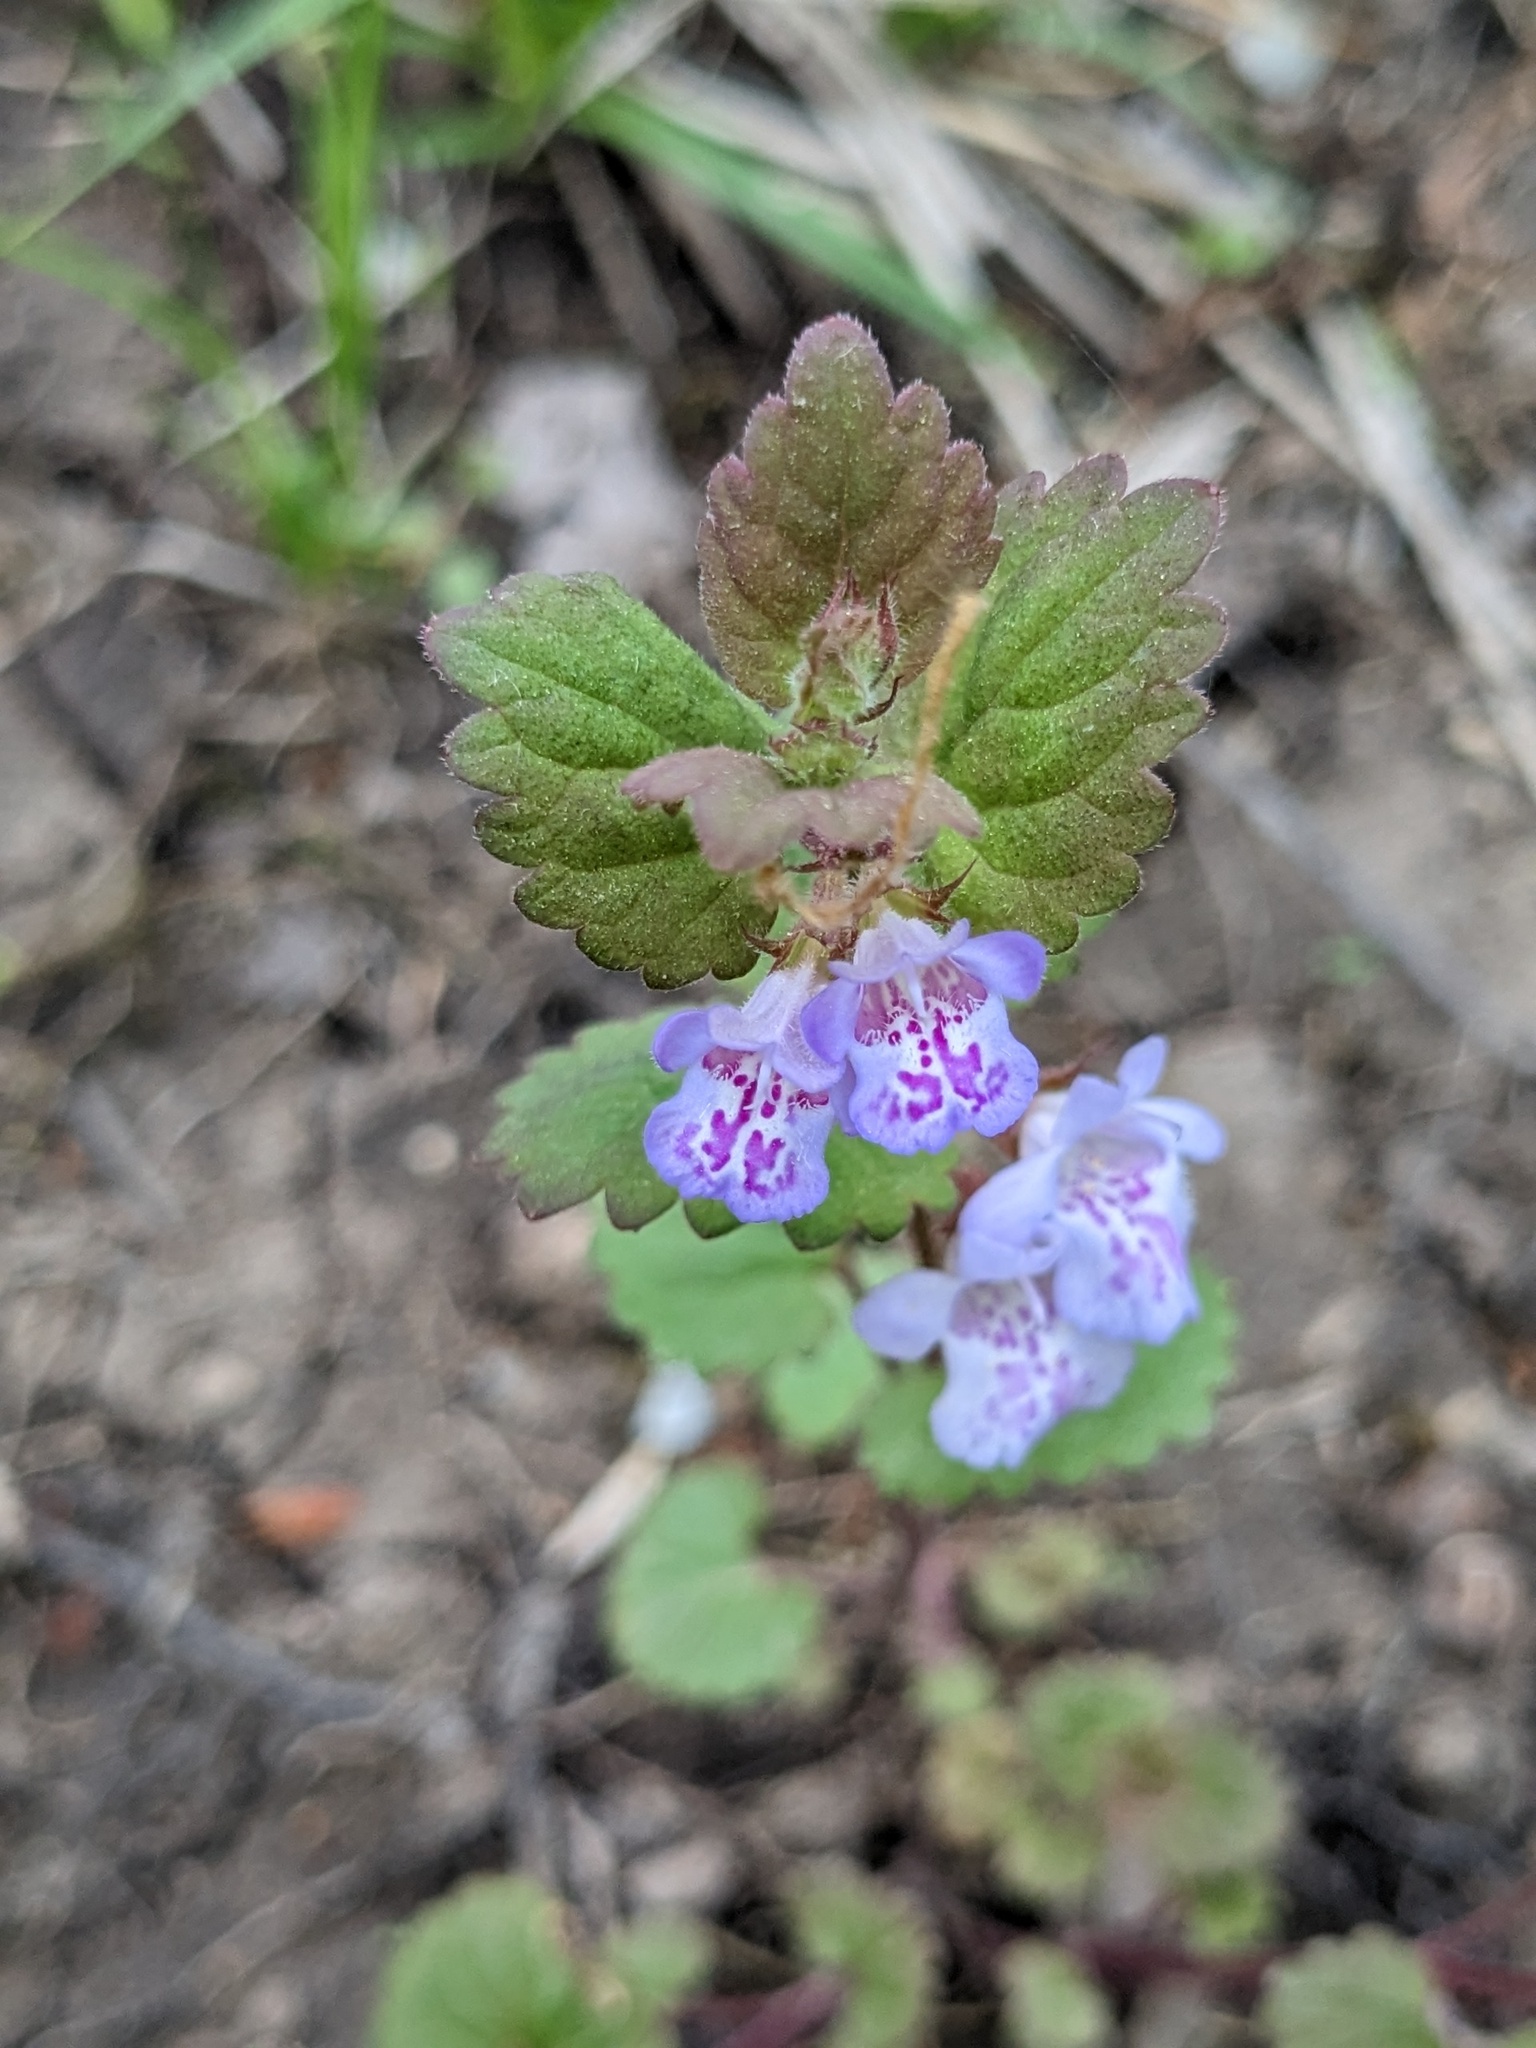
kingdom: Plantae
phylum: Tracheophyta
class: Magnoliopsida
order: Lamiales
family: Lamiaceae
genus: Glechoma
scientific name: Glechoma hederacea
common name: Ground ivy
